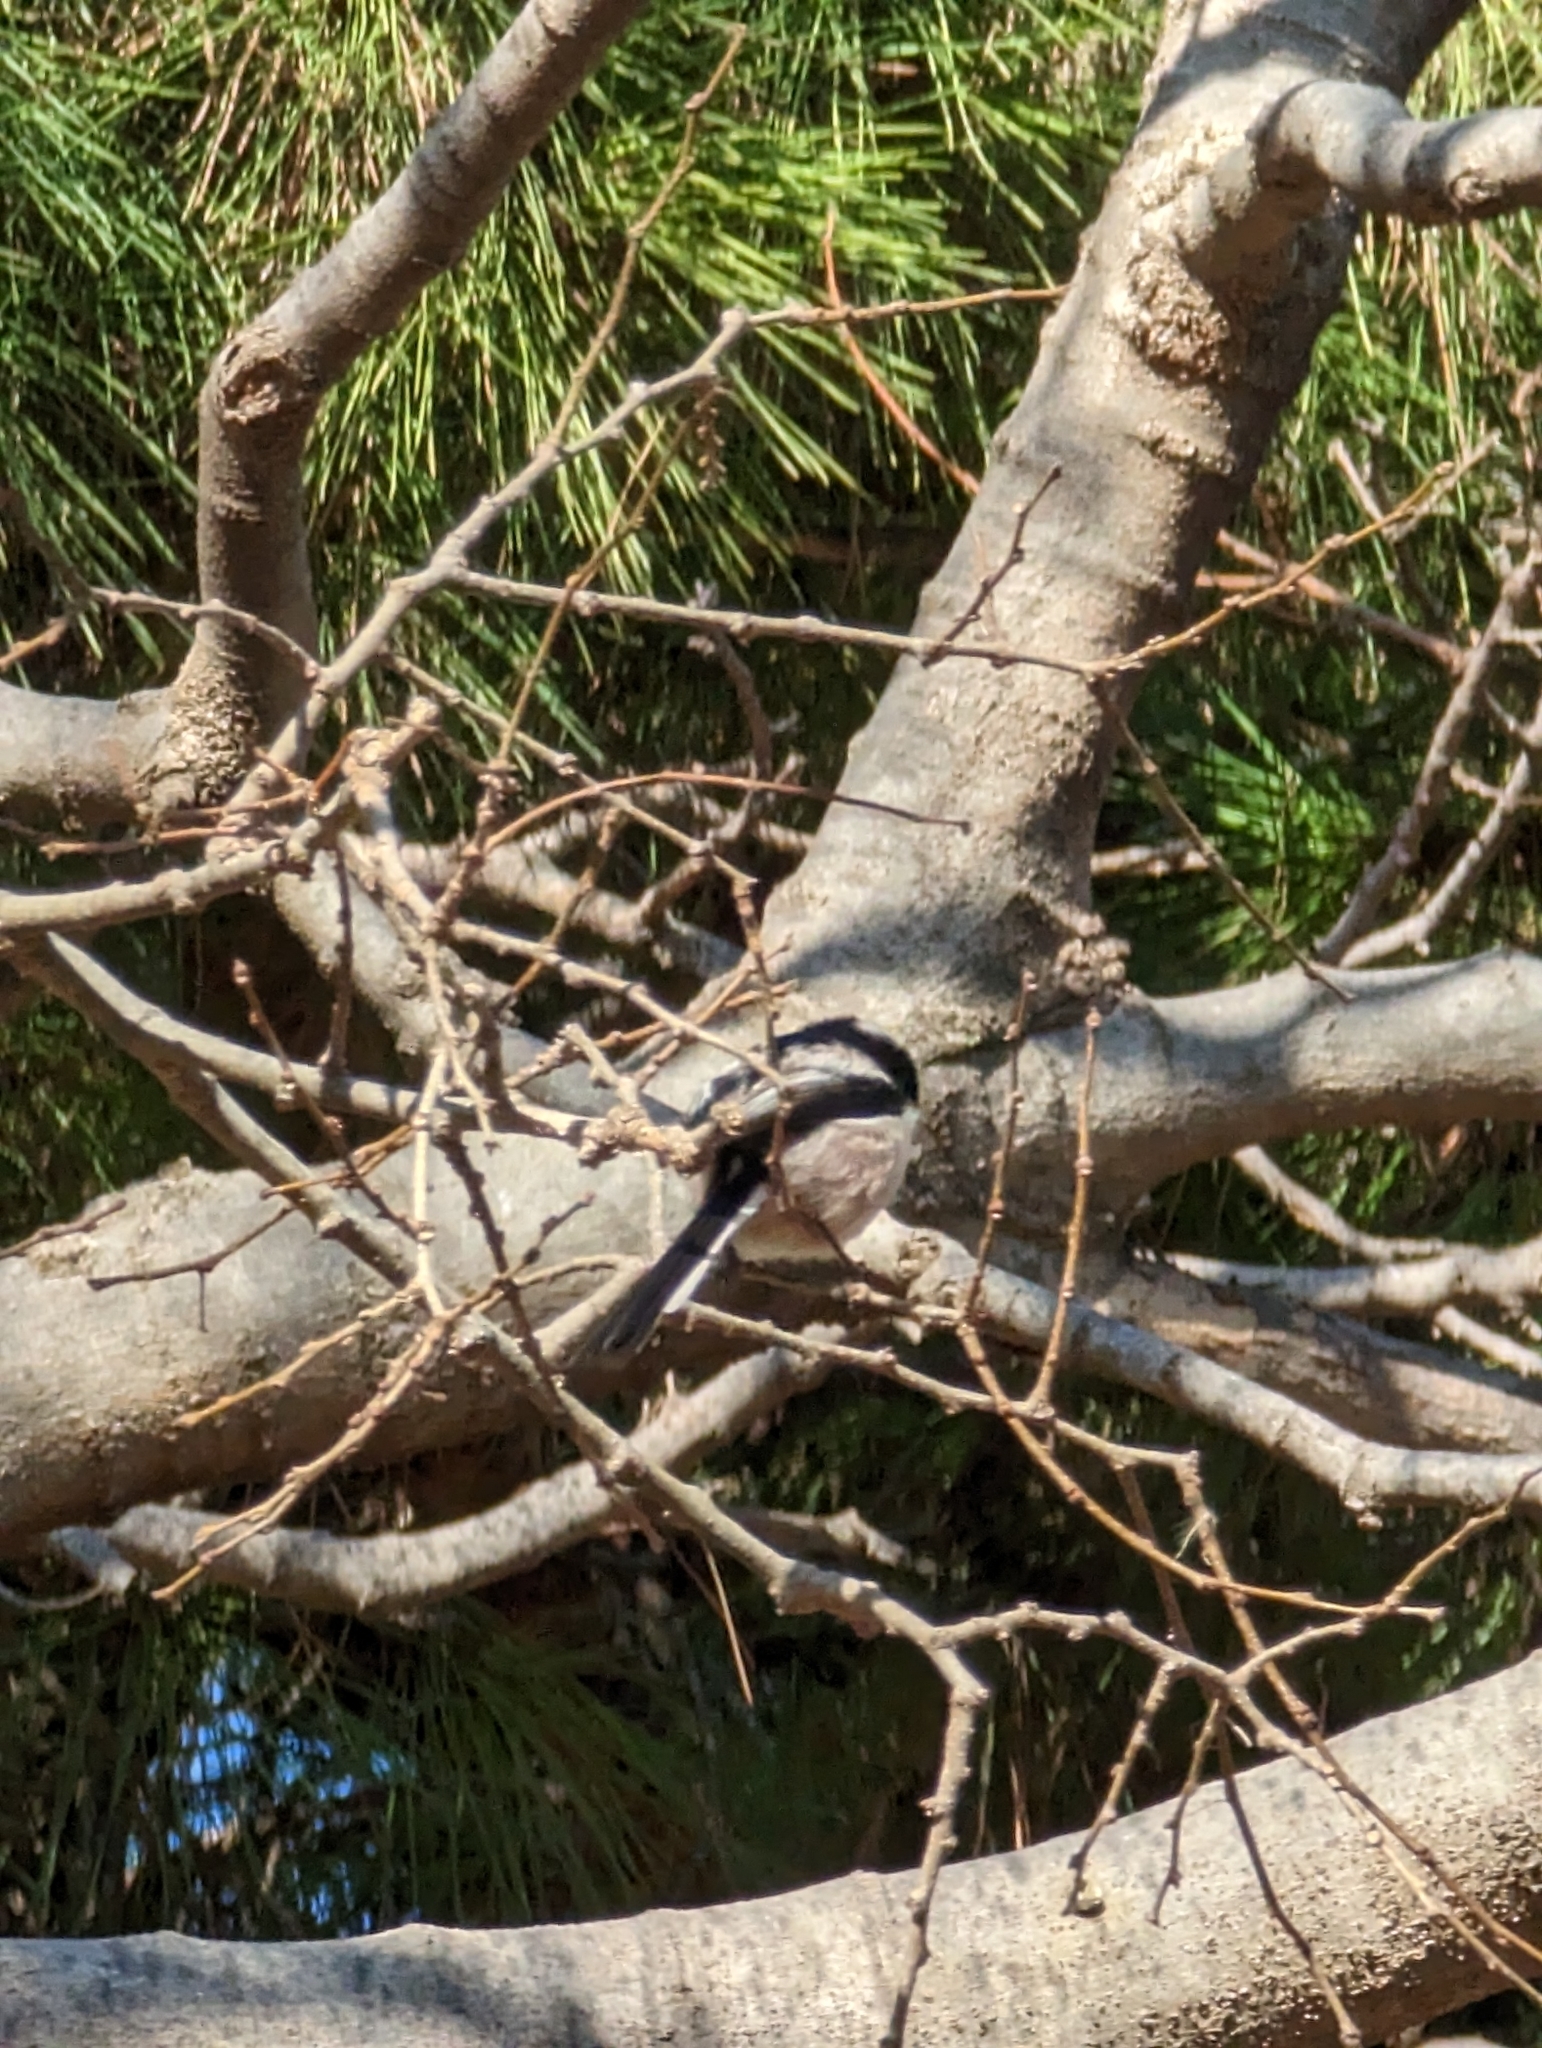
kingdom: Animalia
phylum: Chordata
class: Aves
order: Passeriformes
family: Aegithalidae
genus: Aegithalos
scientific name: Aegithalos caudatus
